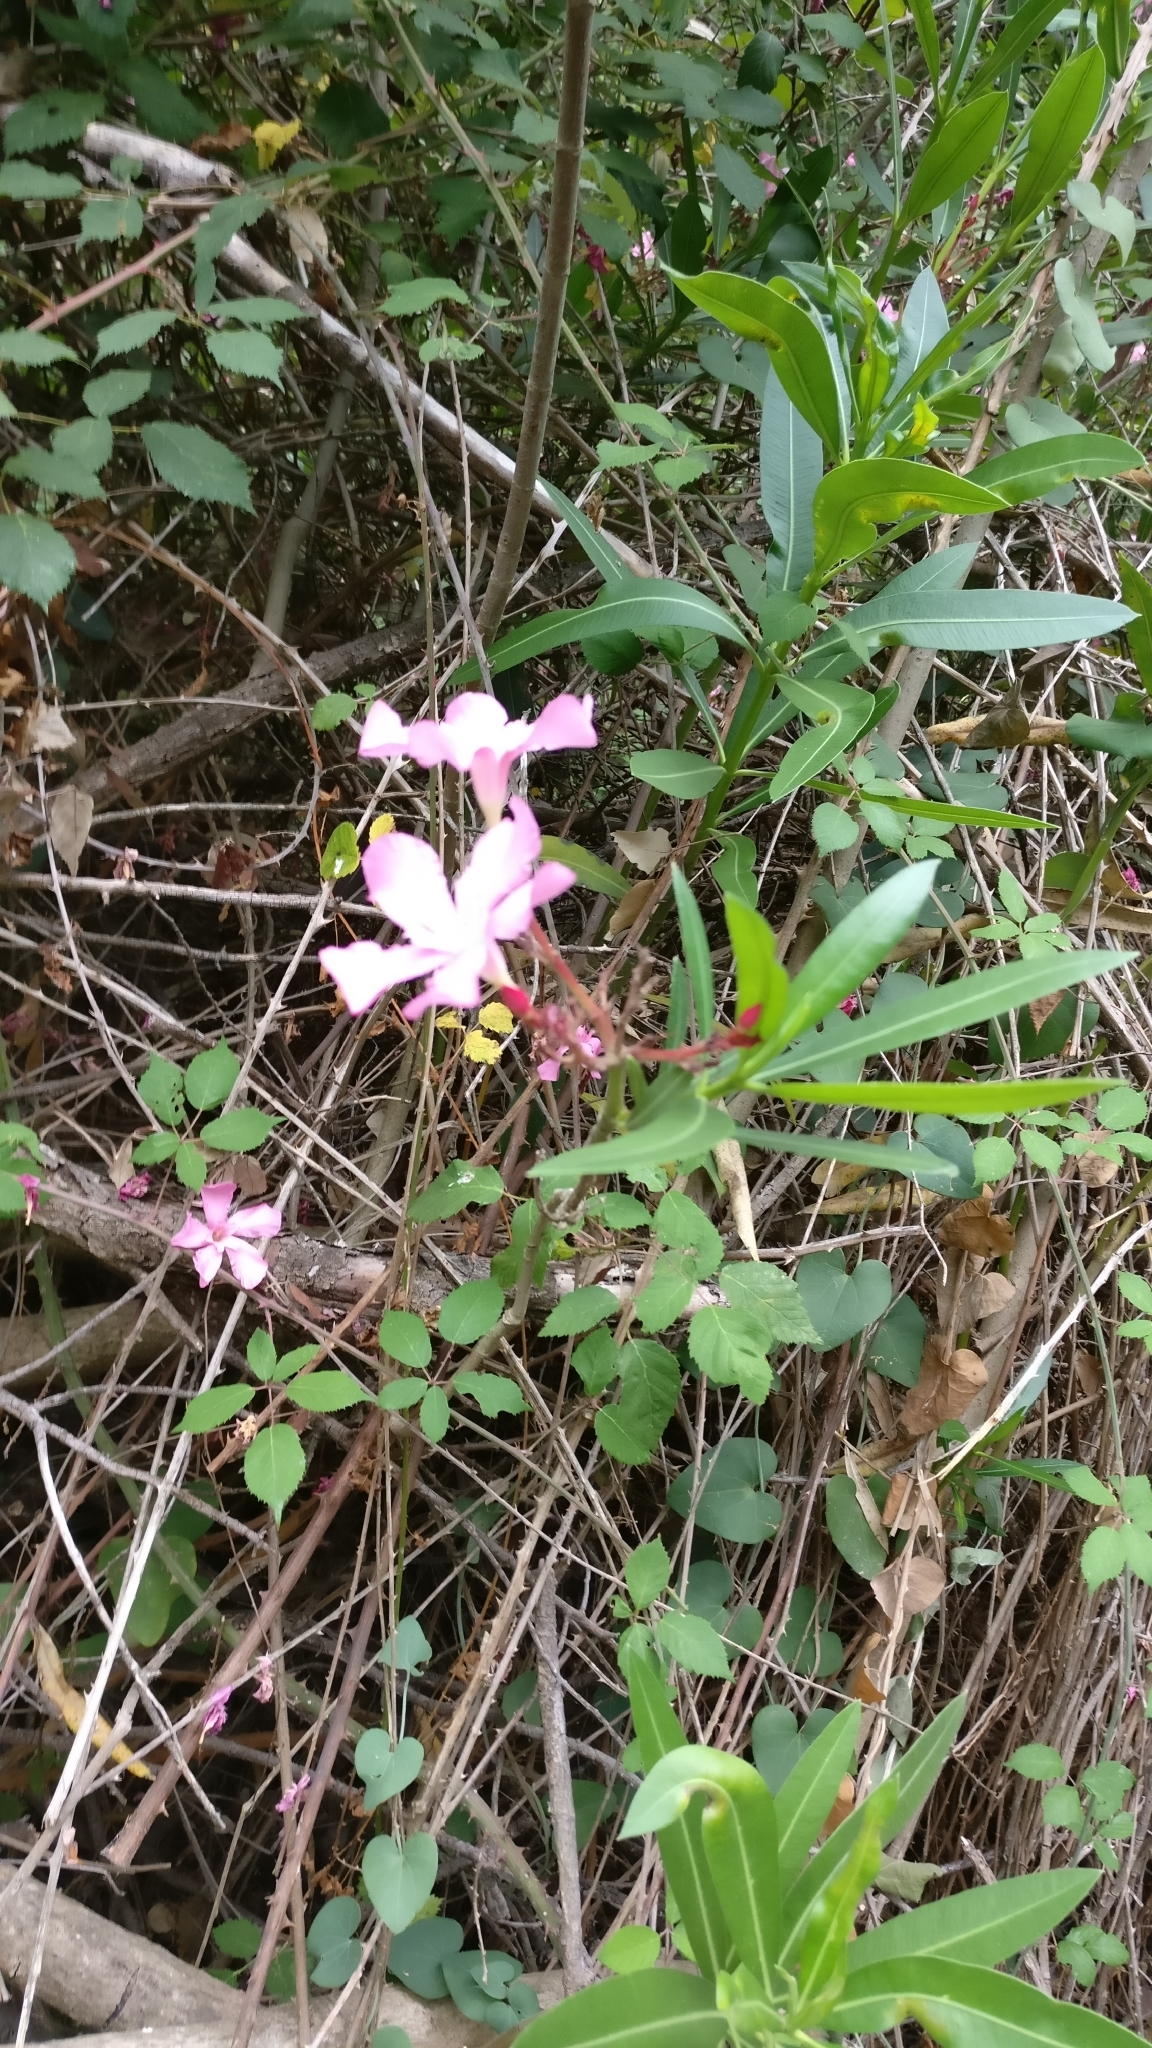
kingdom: Plantae
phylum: Tracheophyta
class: Magnoliopsida
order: Gentianales
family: Apocynaceae
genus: Nerium
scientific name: Nerium oleander
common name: Oleander
